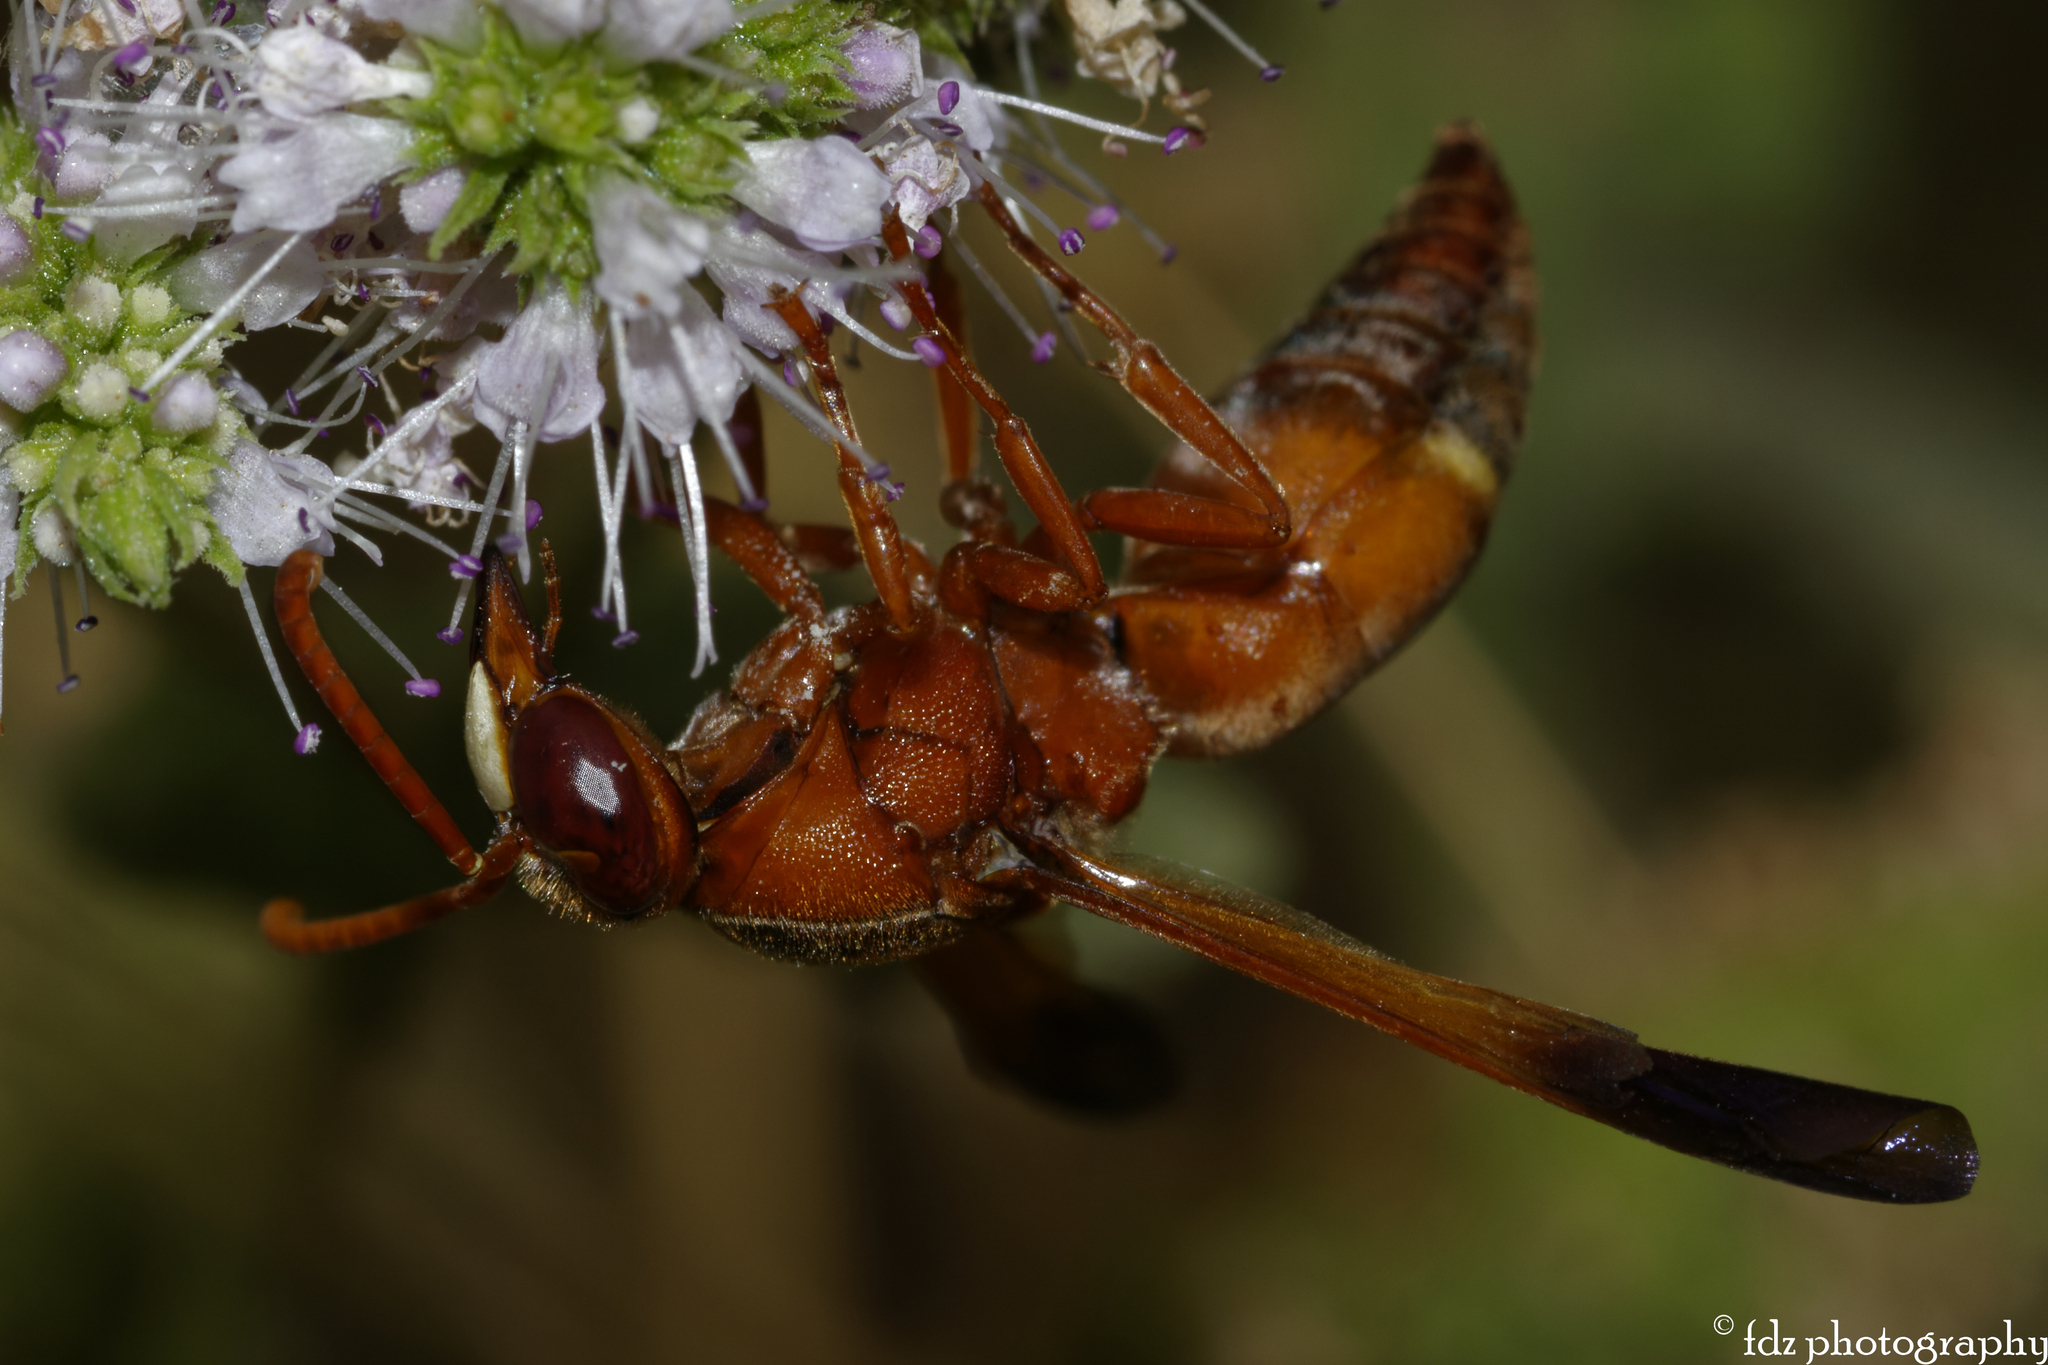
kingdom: Animalia
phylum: Arthropoda
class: Insecta
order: Hymenoptera
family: Eumenidae
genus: Rhynchium
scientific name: Rhynchium oculatum
